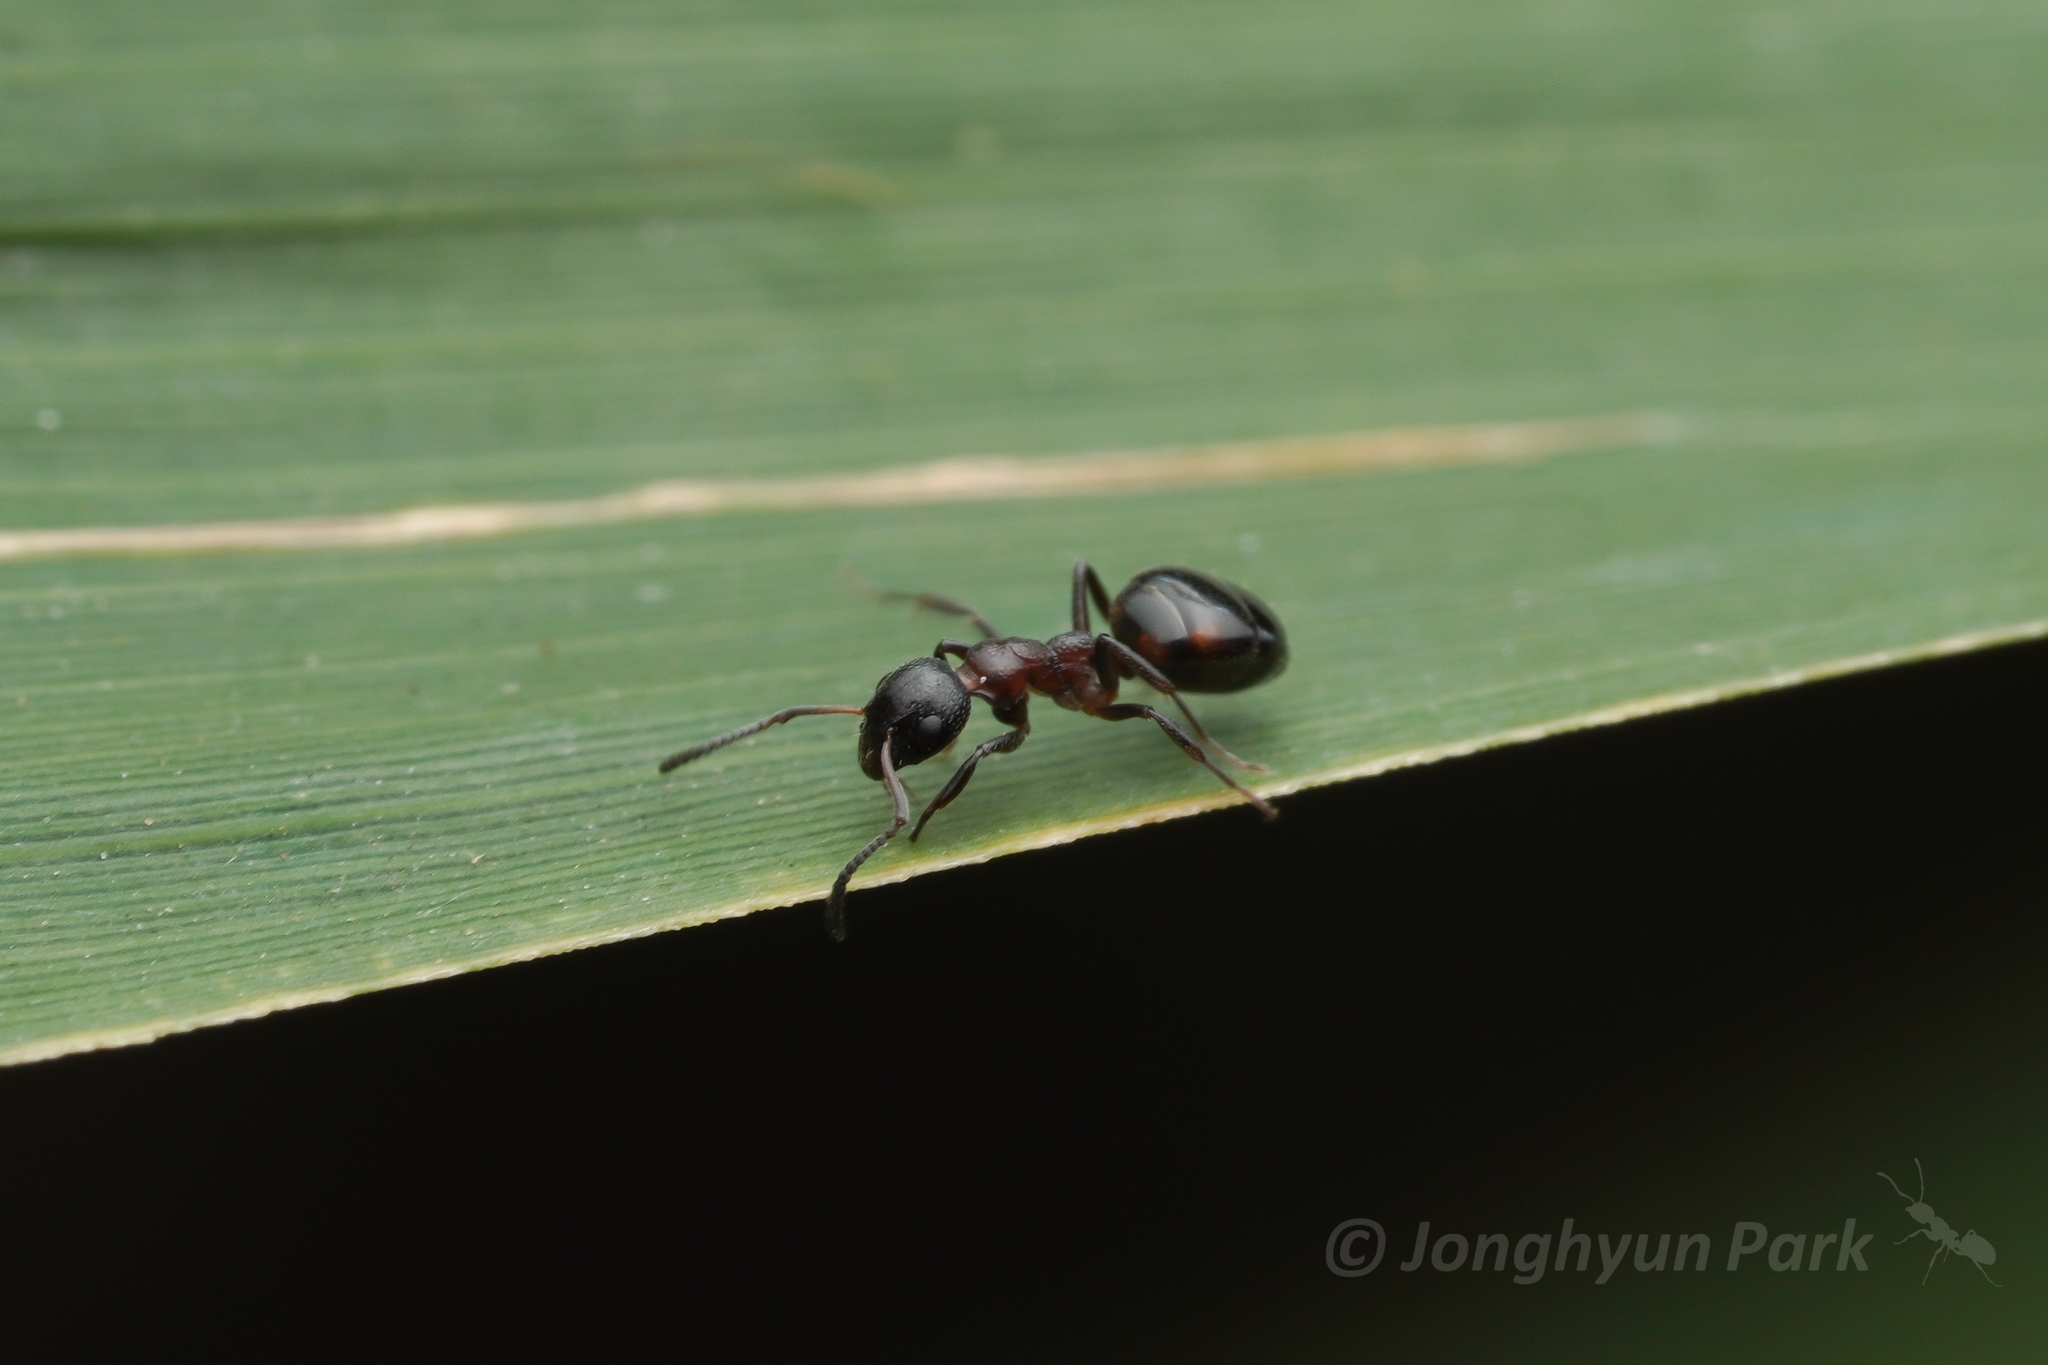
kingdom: Animalia
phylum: Arthropoda
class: Insecta
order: Hymenoptera
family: Formicidae
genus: Dolichoderus
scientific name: Dolichoderus pustulatus
